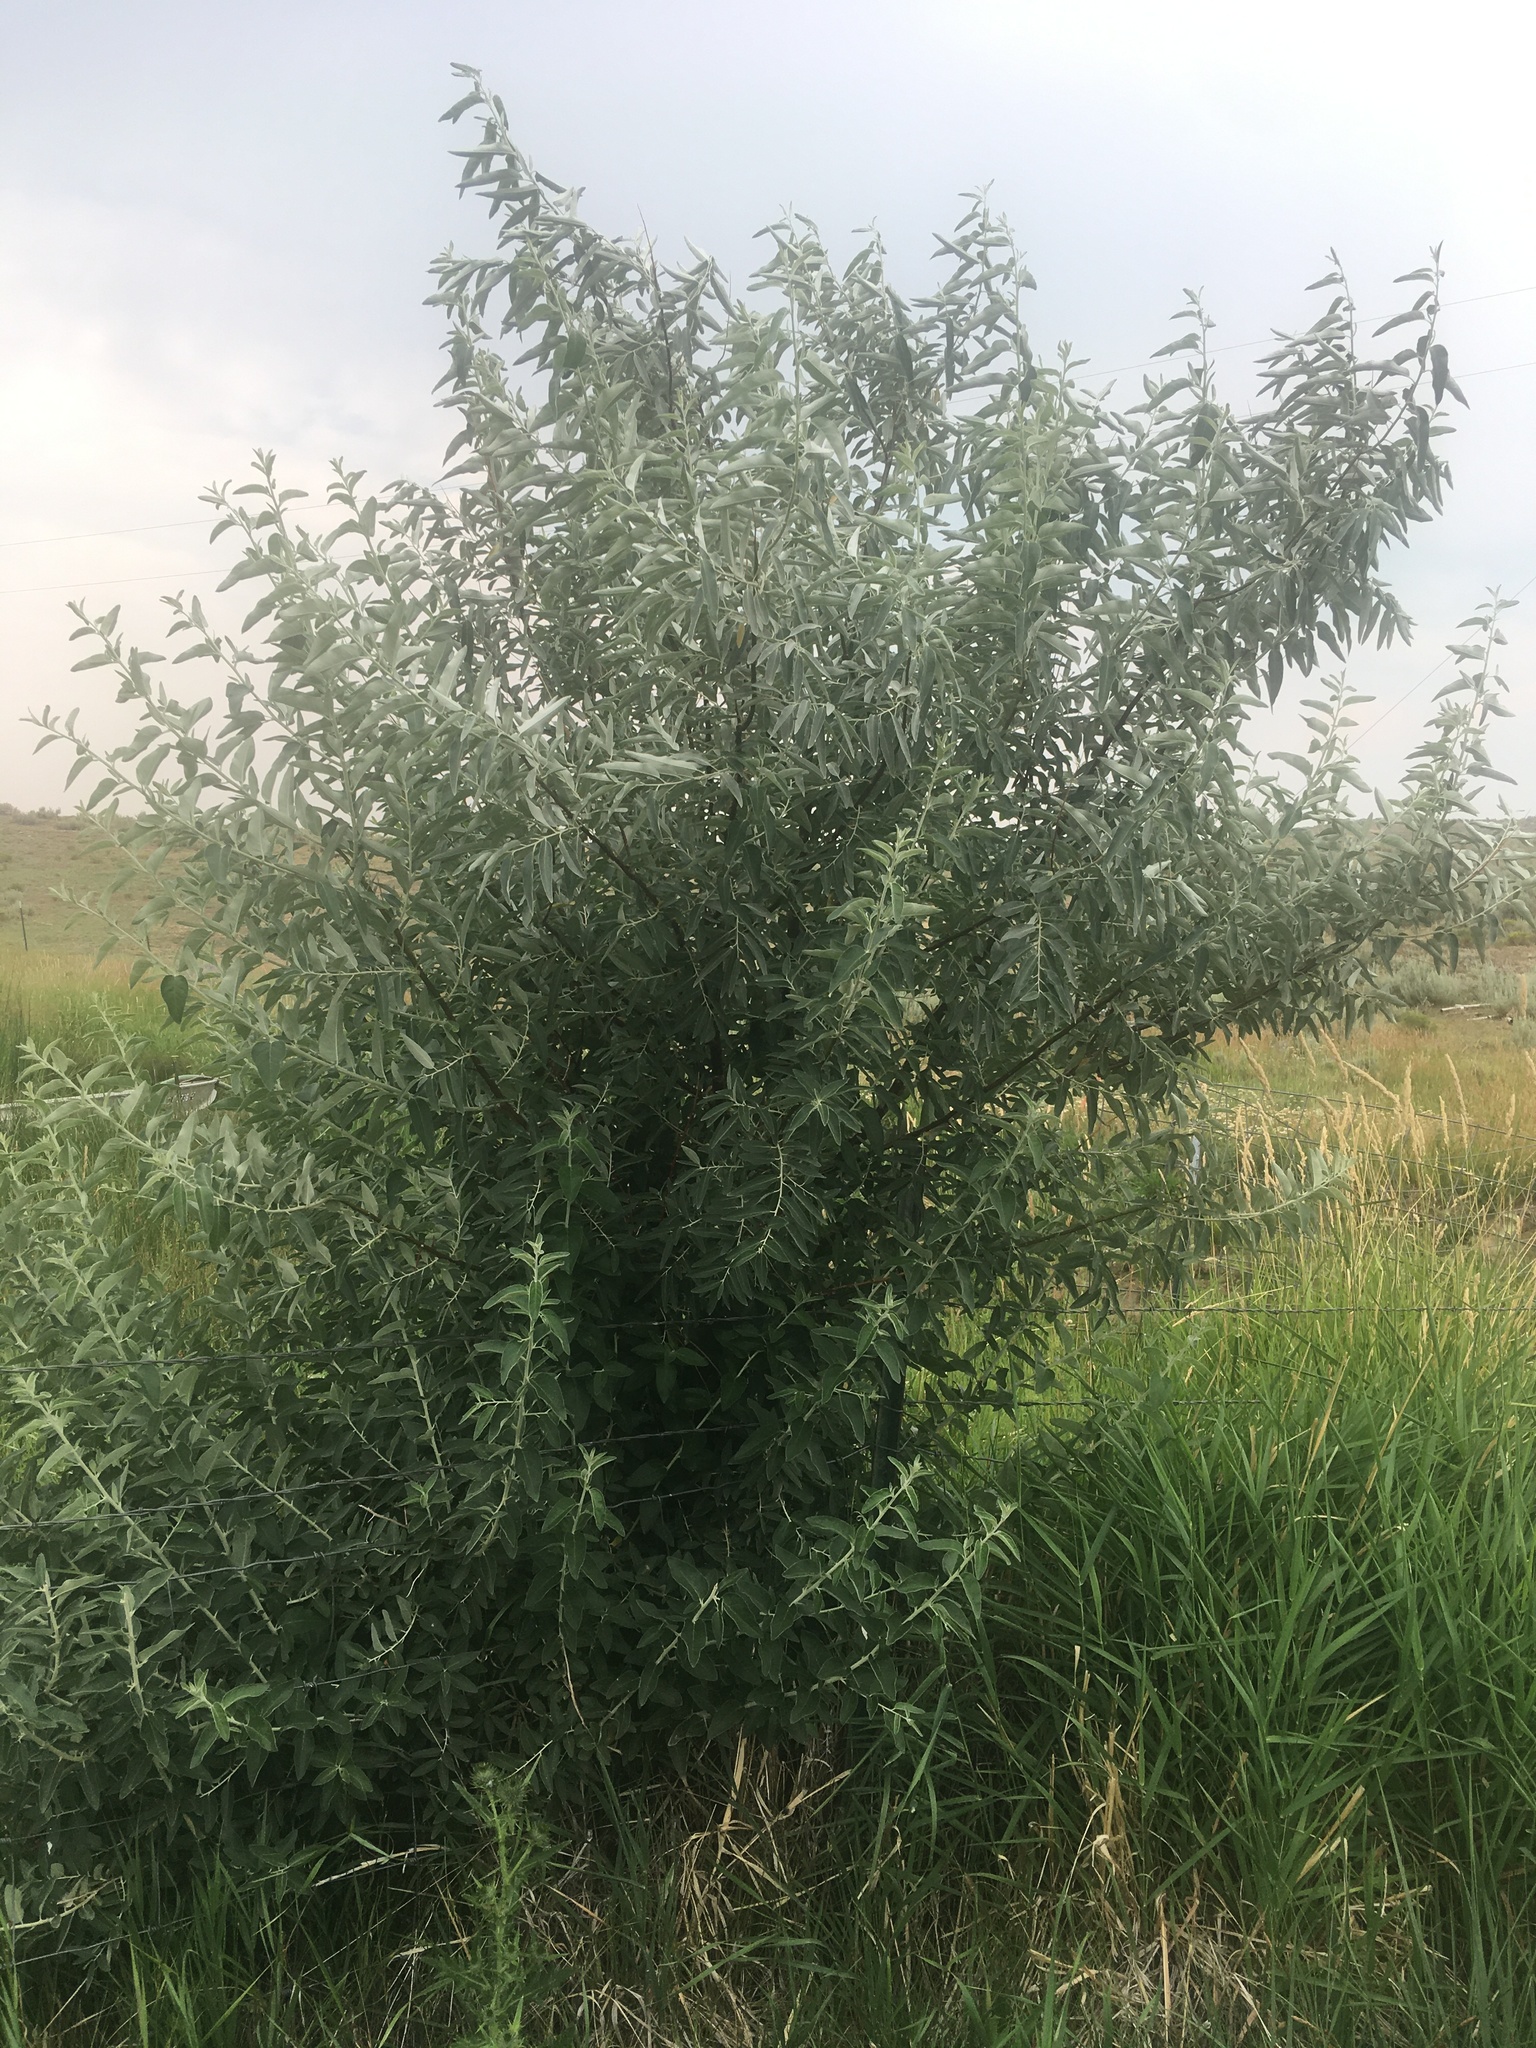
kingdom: Plantae
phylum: Tracheophyta
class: Magnoliopsida
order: Rosales
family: Elaeagnaceae
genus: Elaeagnus
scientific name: Elaeagnus angustifolia
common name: Russian olive
